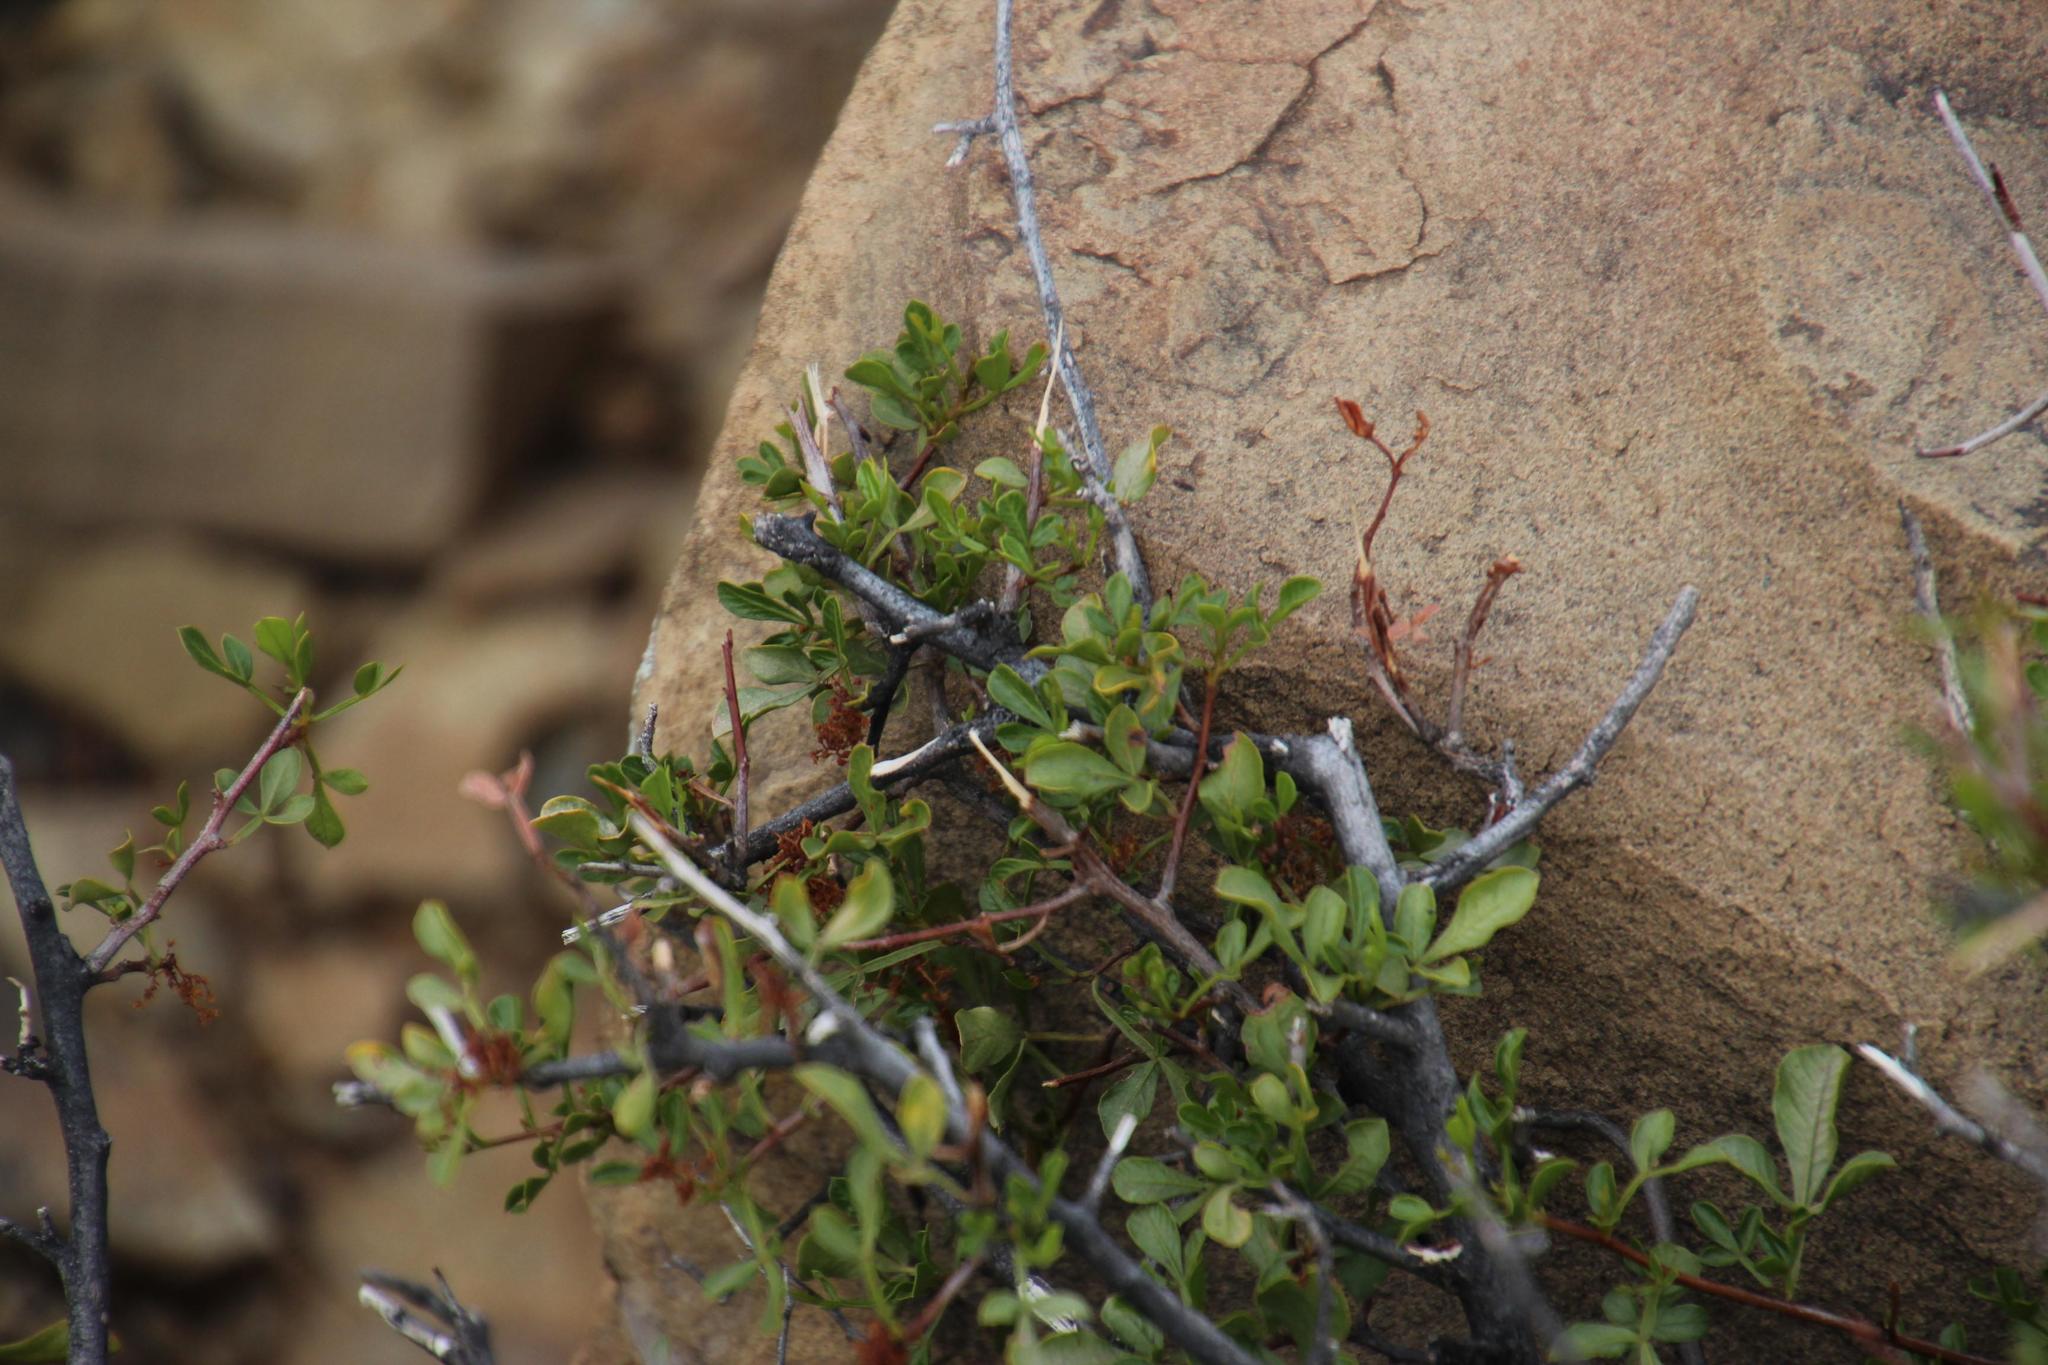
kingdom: Plantae
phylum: Tracheophyta
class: Magnoliopsida
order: Sapindales
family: Anacardiaceae
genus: Searsia
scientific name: Searsia undulata
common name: Namaqua kunibush
